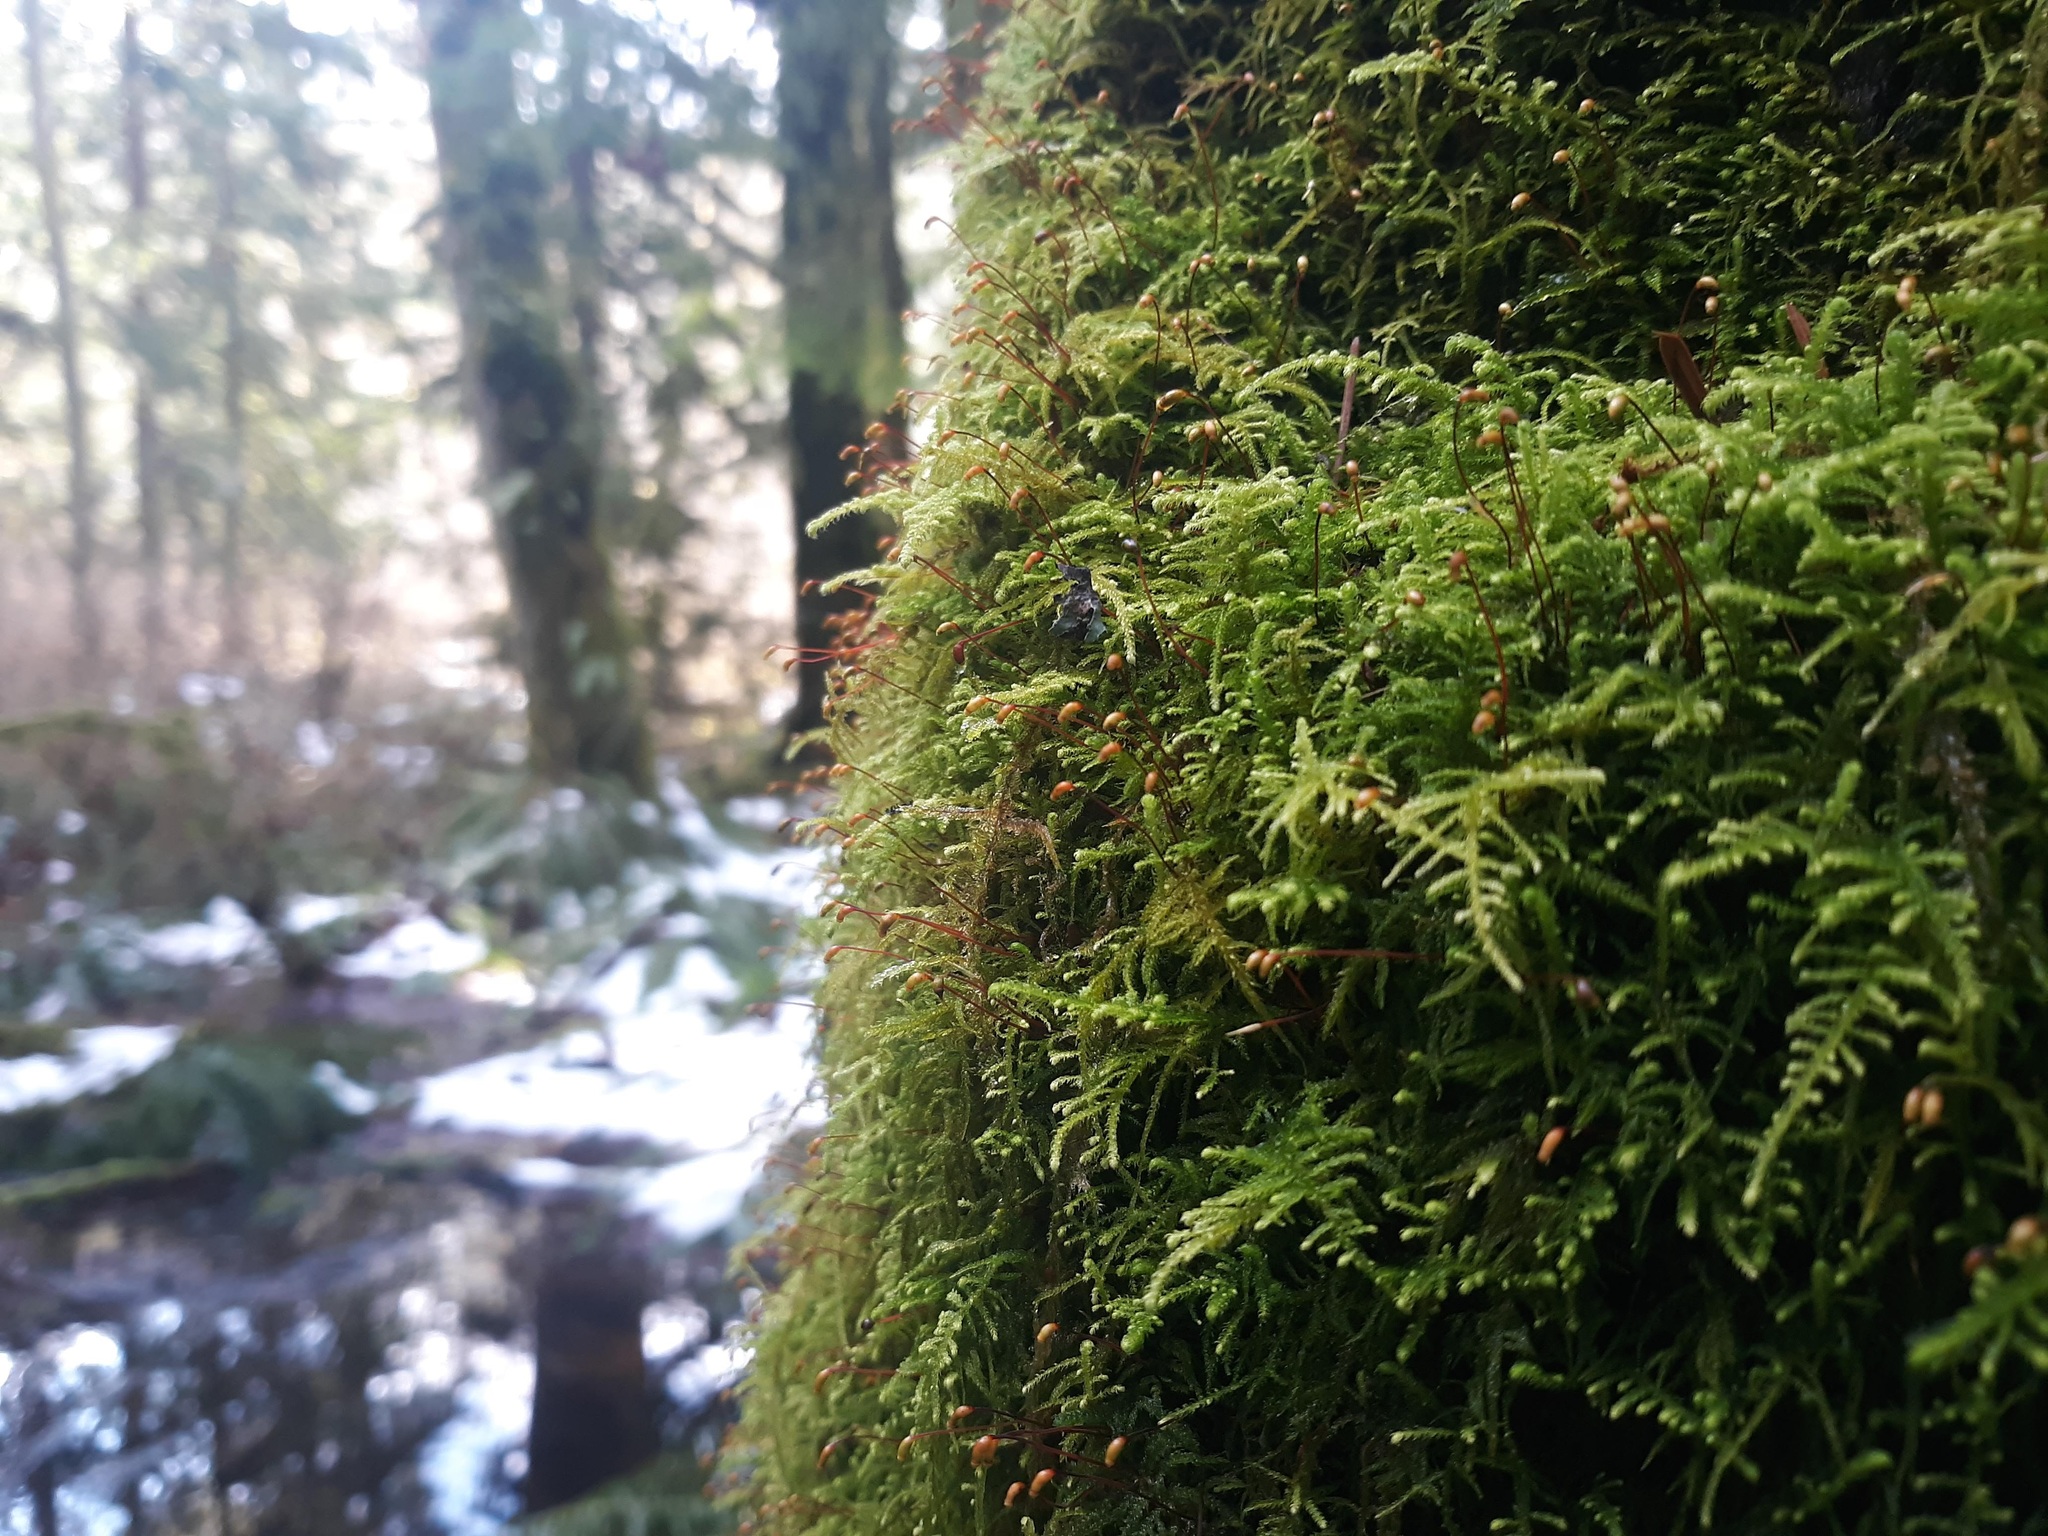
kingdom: Plantae
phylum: Bryophyta
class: Bryopsida
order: Hypnales
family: Brachytheciaceae
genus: Kindbergia
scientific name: Kindbergia oregana
